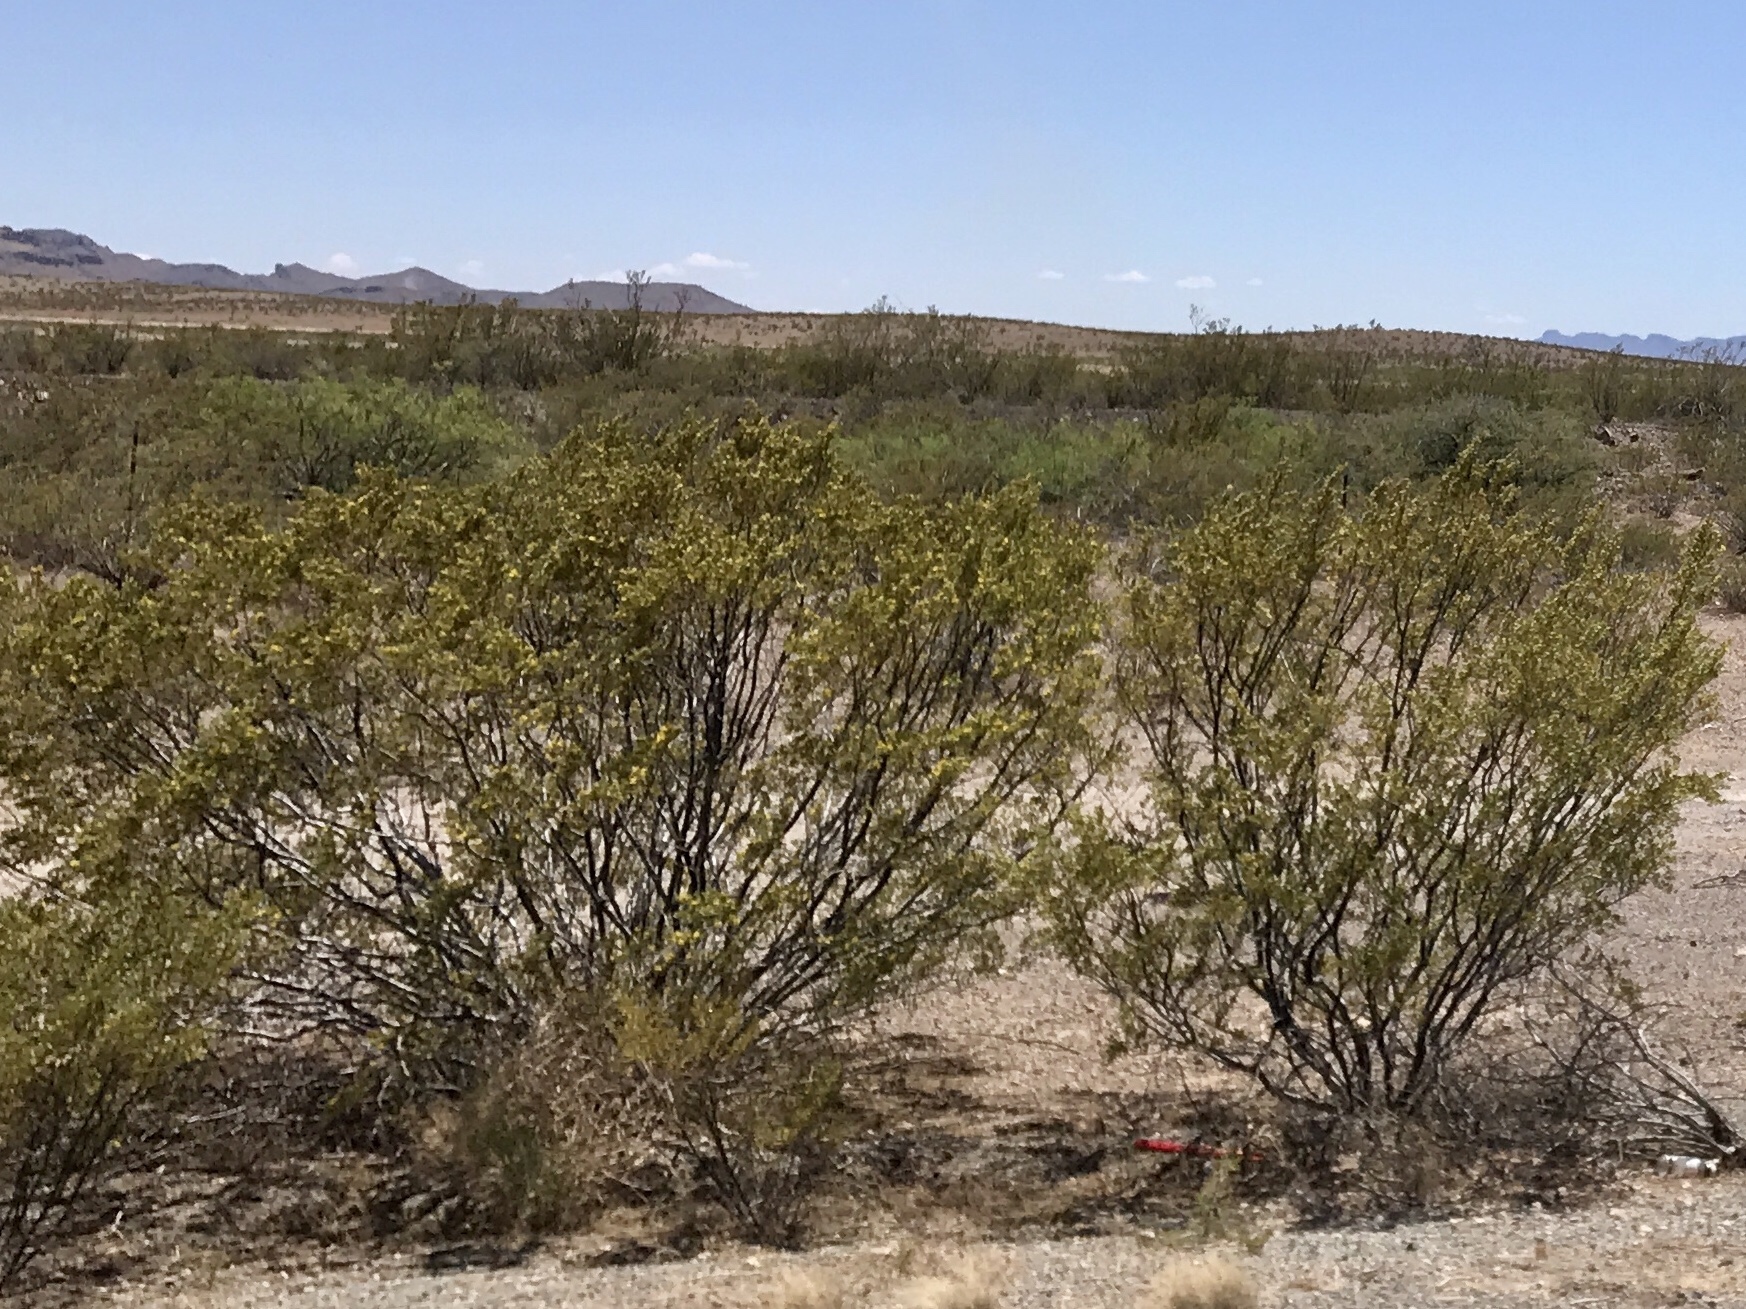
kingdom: Plantae
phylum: Tracheophyta
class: Magnoliopsida
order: Zygophyllales
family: Zygophyllaceae
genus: Larrea
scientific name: Larrea tridentata
